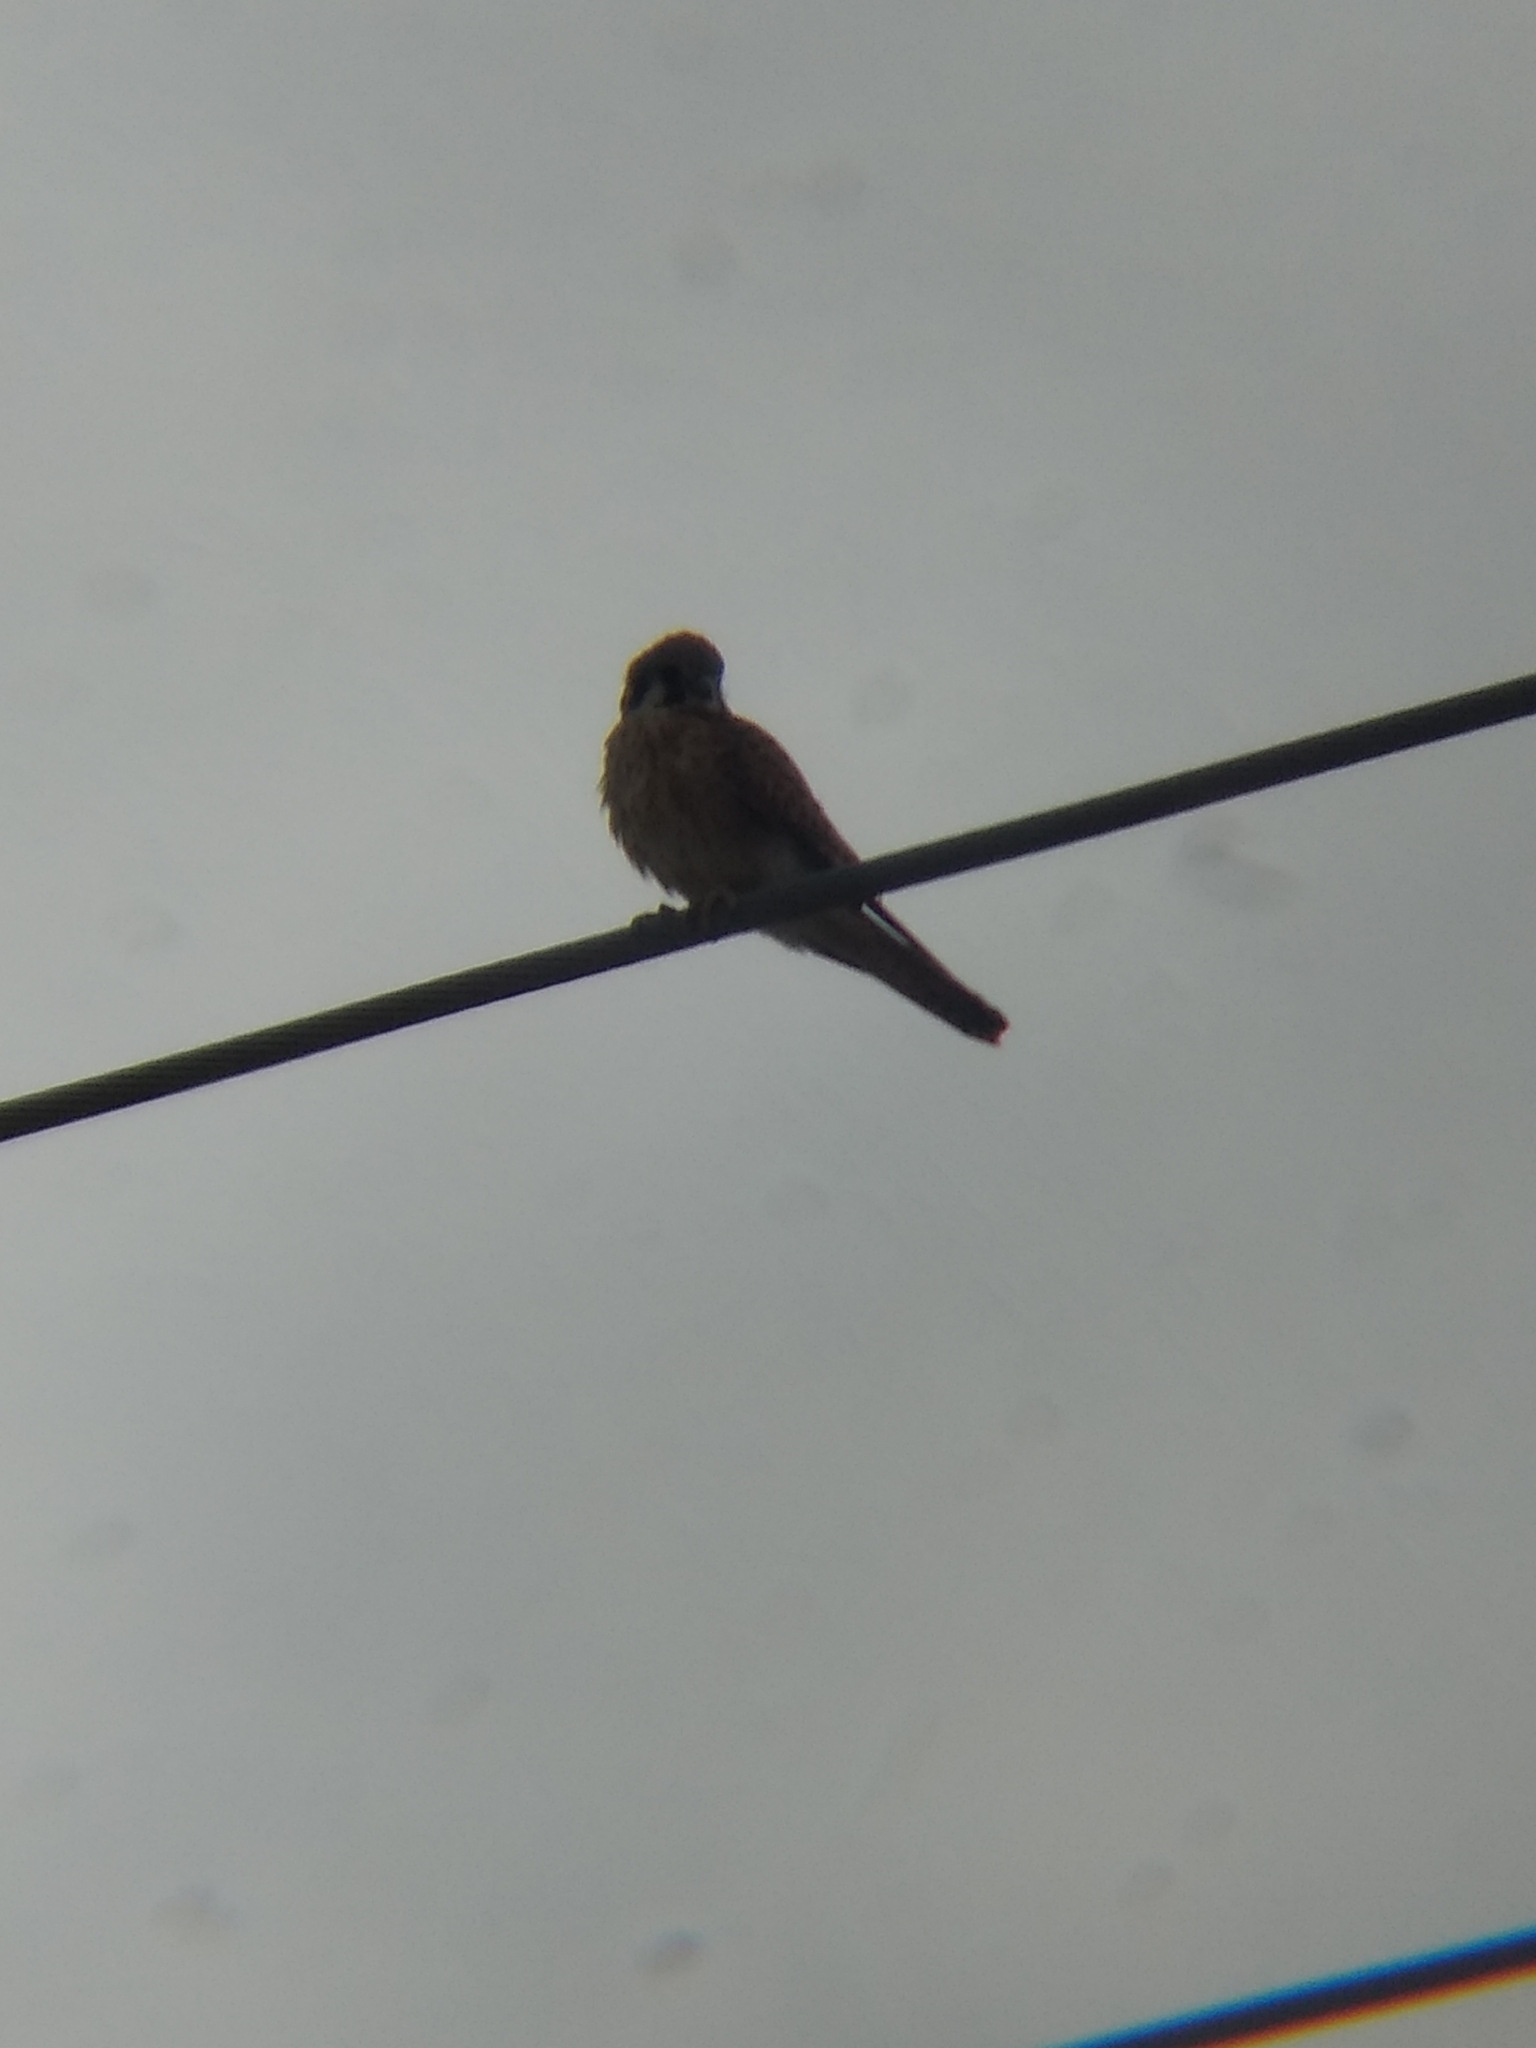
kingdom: Animalia
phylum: Chordata
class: Aves
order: Falconiformes
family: Falconidae
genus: Falco
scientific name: Falco sparverius
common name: American kestrel
